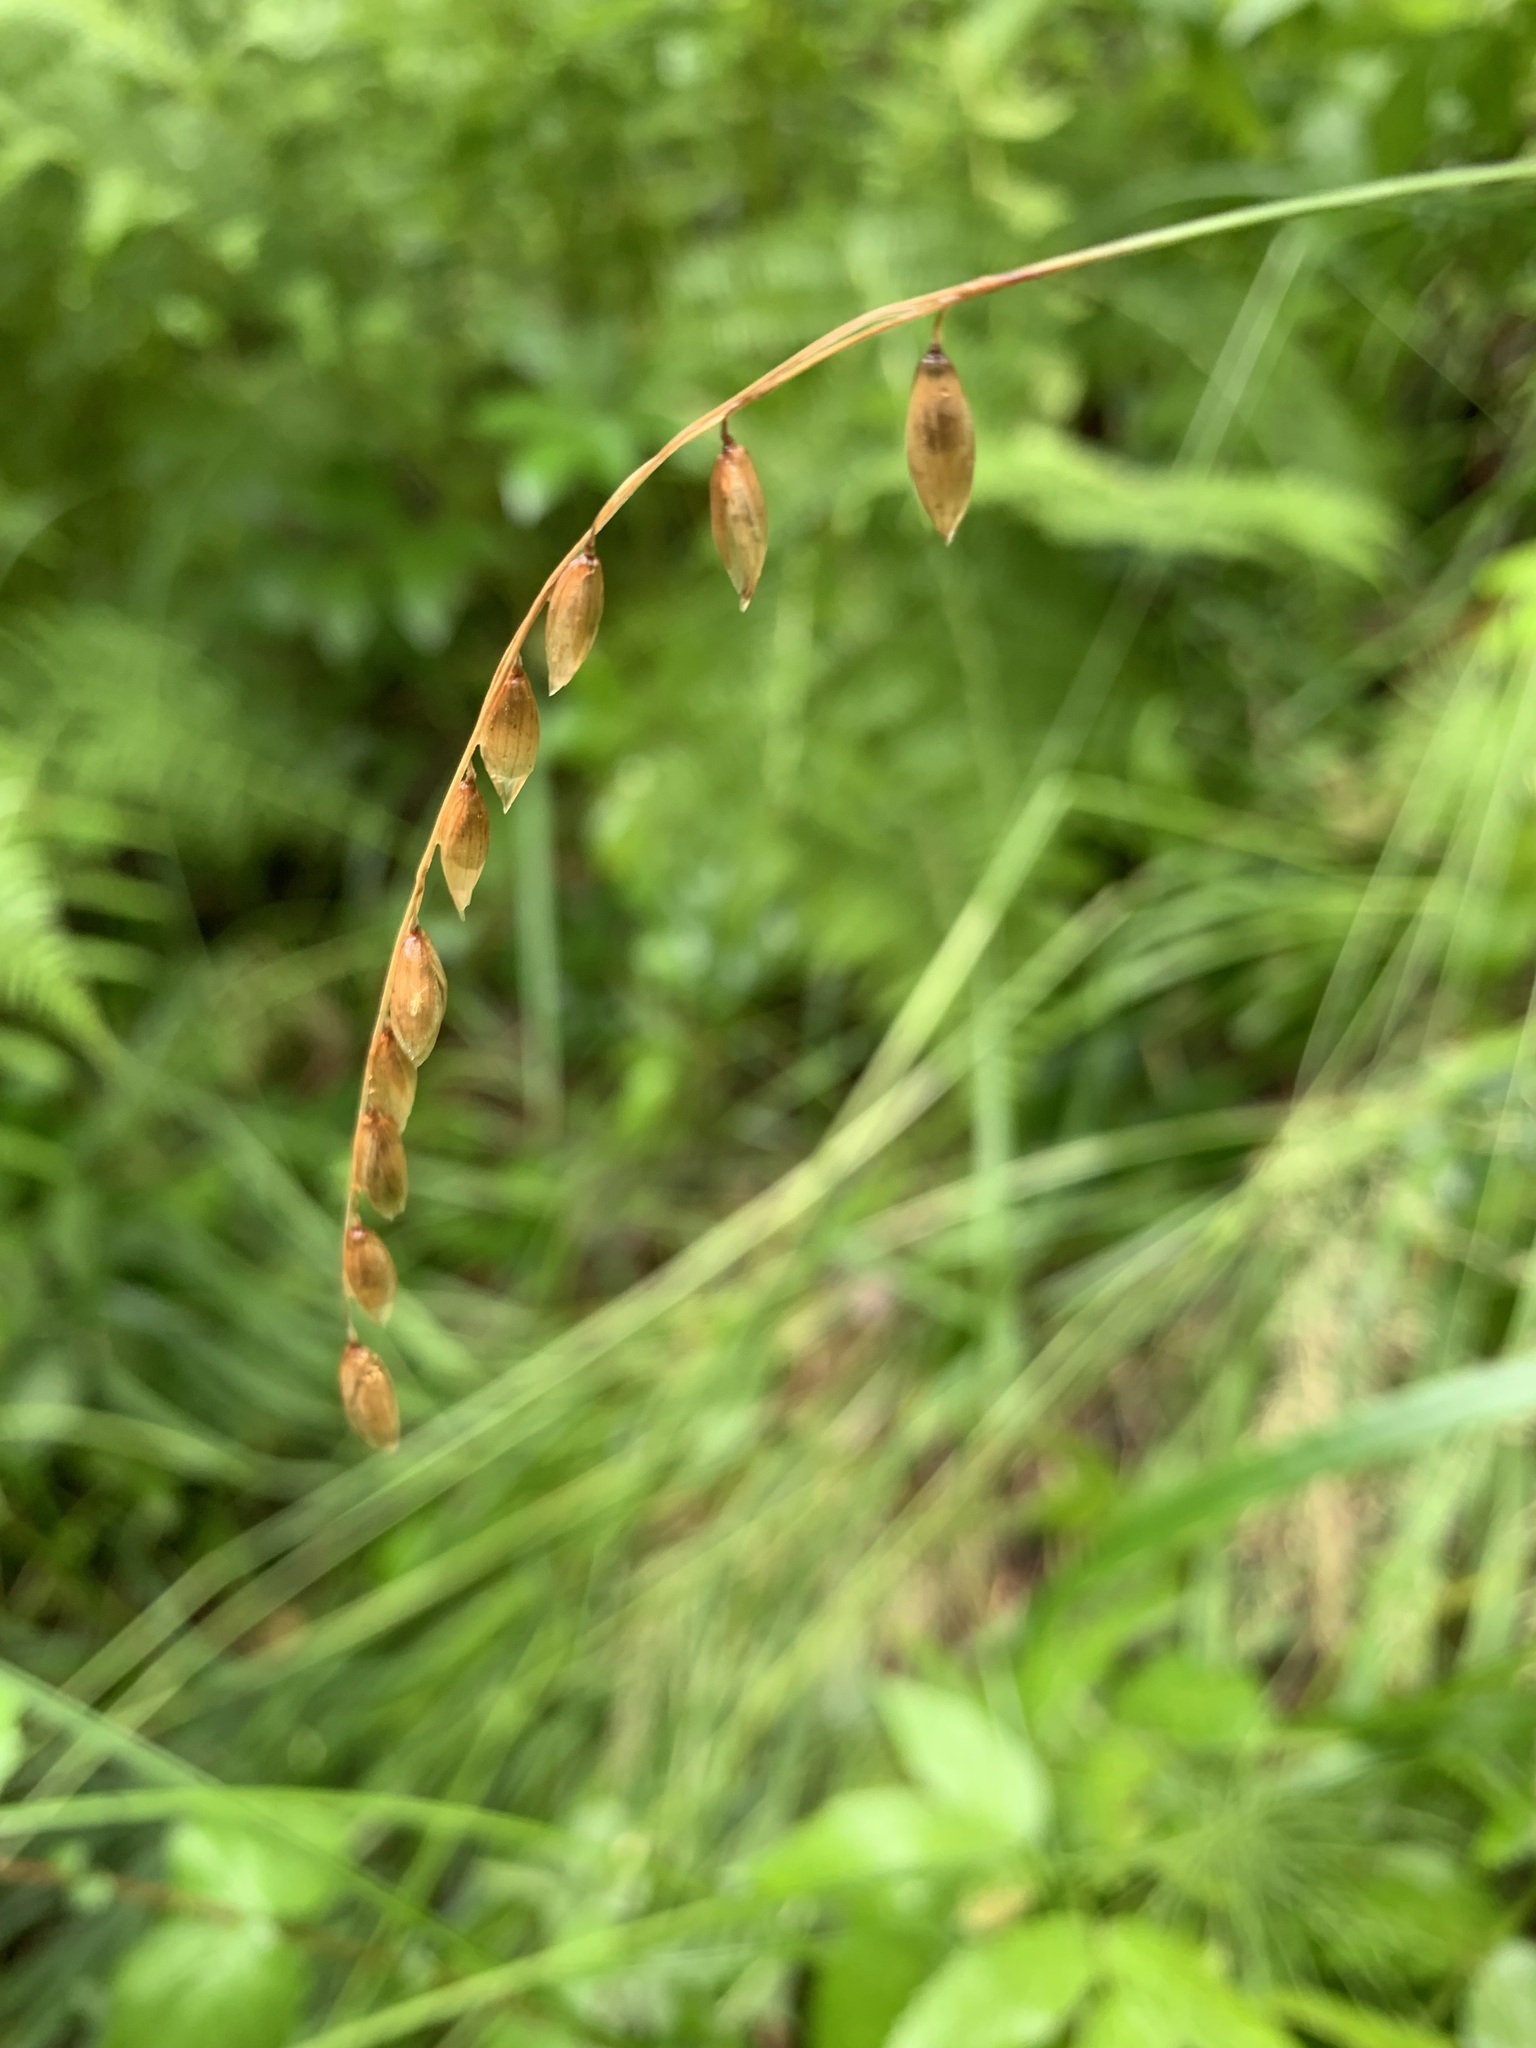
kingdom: Plantae
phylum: Tracheophyta
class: Liliopsida
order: Poales
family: Poaceae
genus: Melica
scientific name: Melica nutans
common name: Mountain melick
